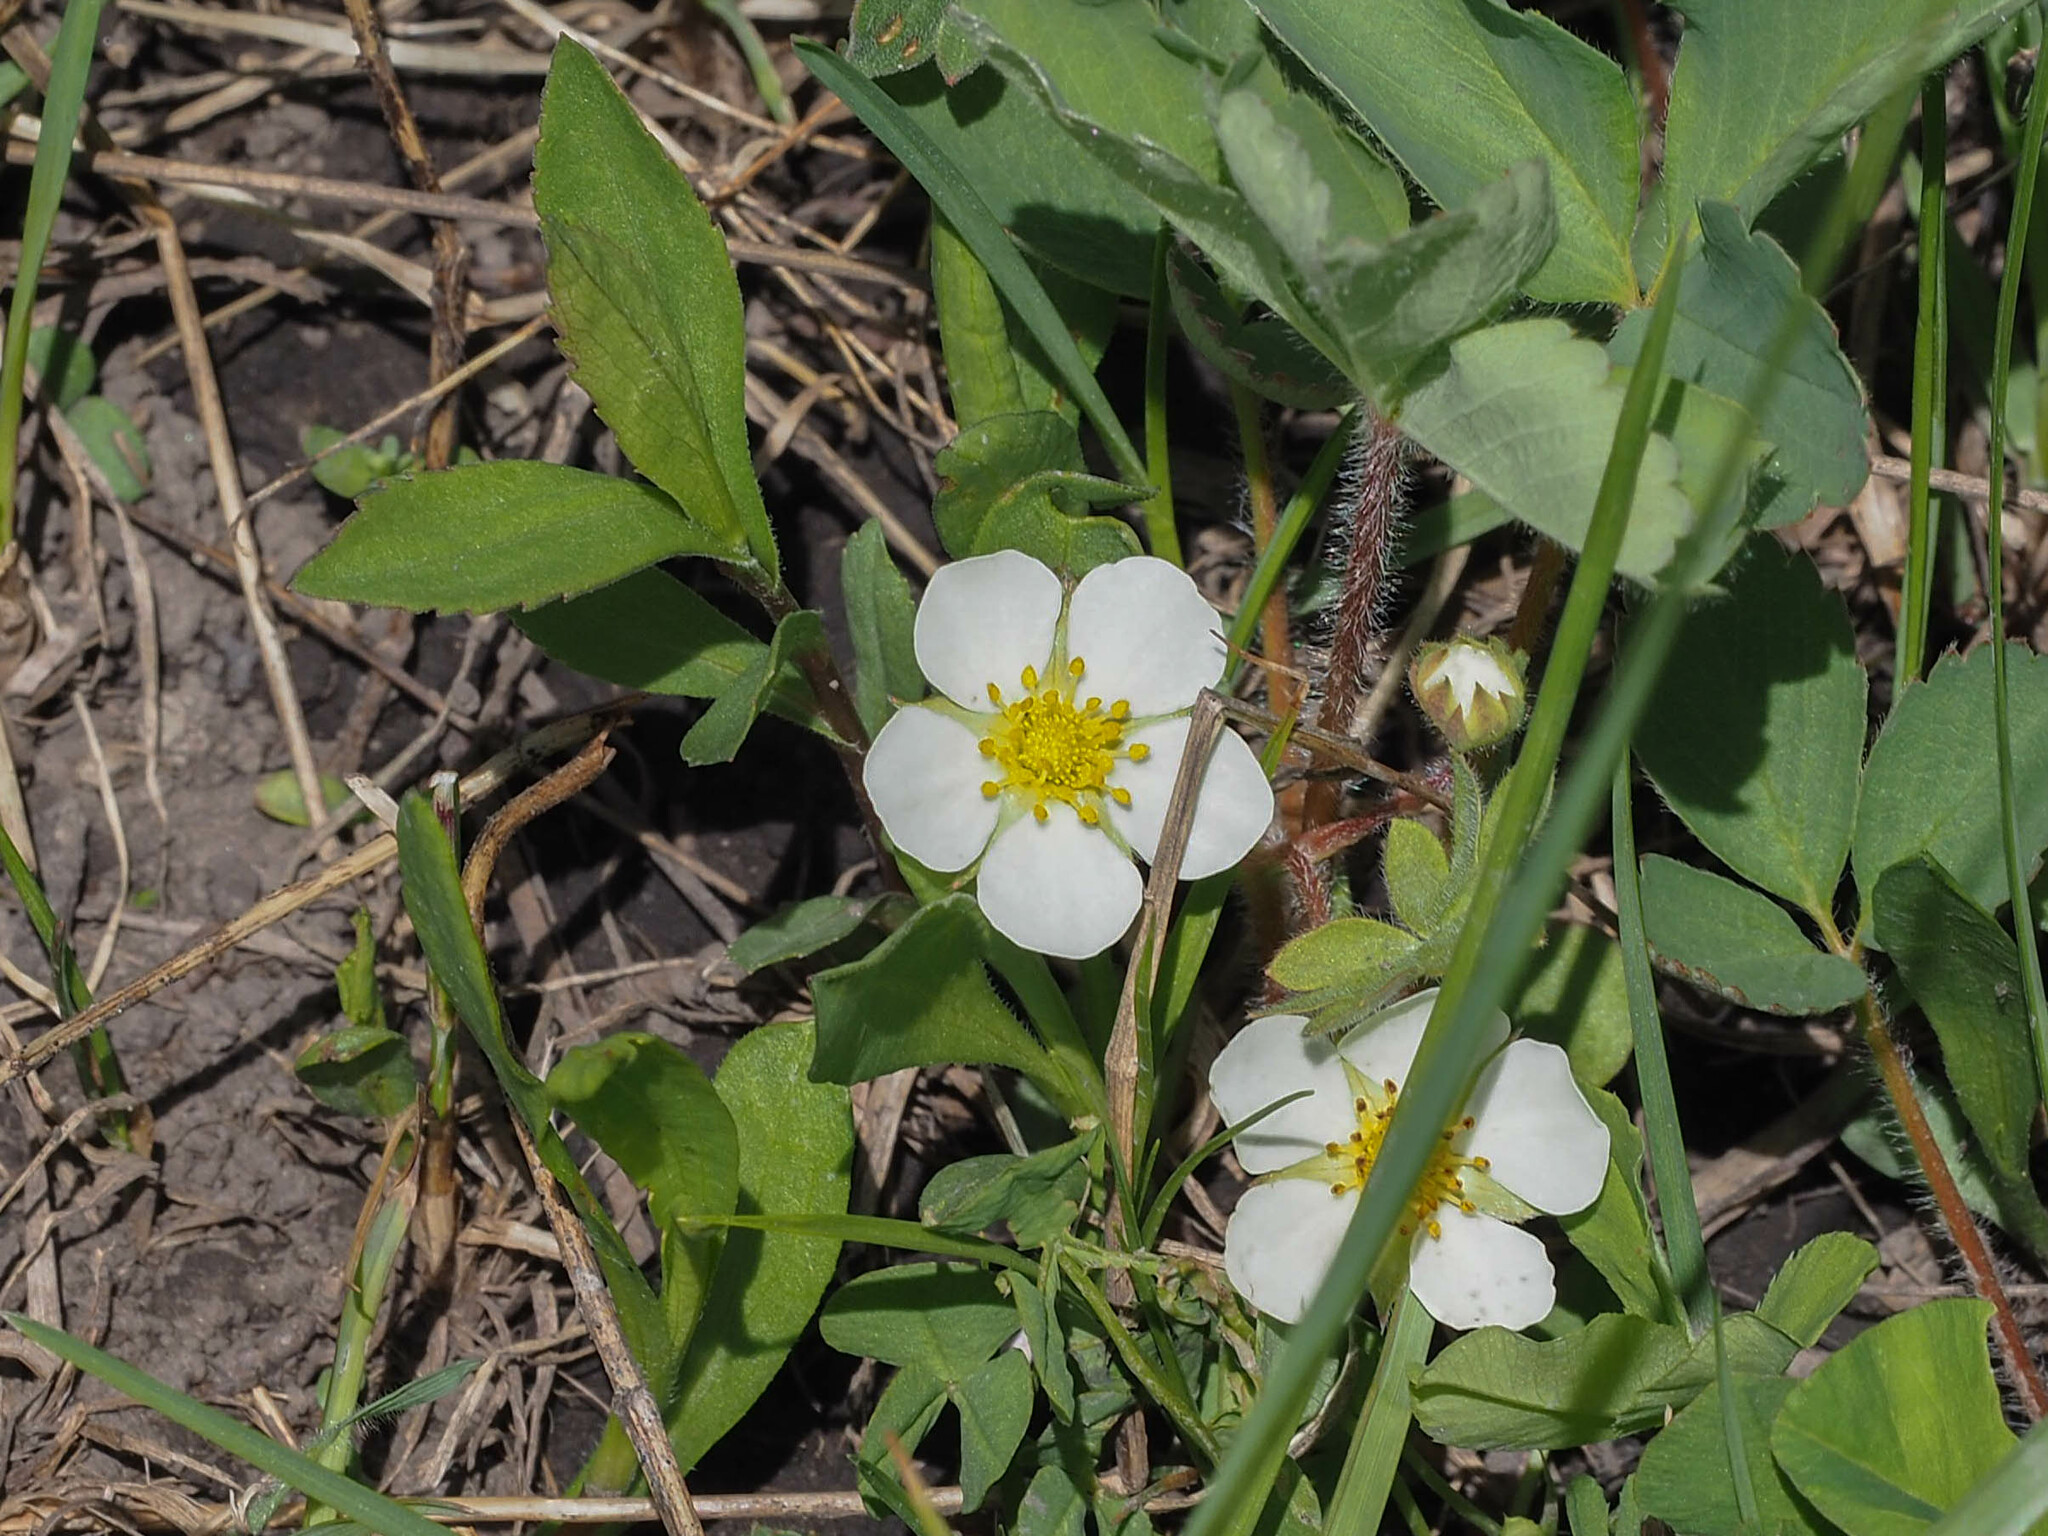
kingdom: Plantae
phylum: Tracheophyta
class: Magnoliopsida
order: Rosales
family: Rosaceae
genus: Fragaria
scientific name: Fragaria virginiana
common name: Thickleaved wild strawberry
